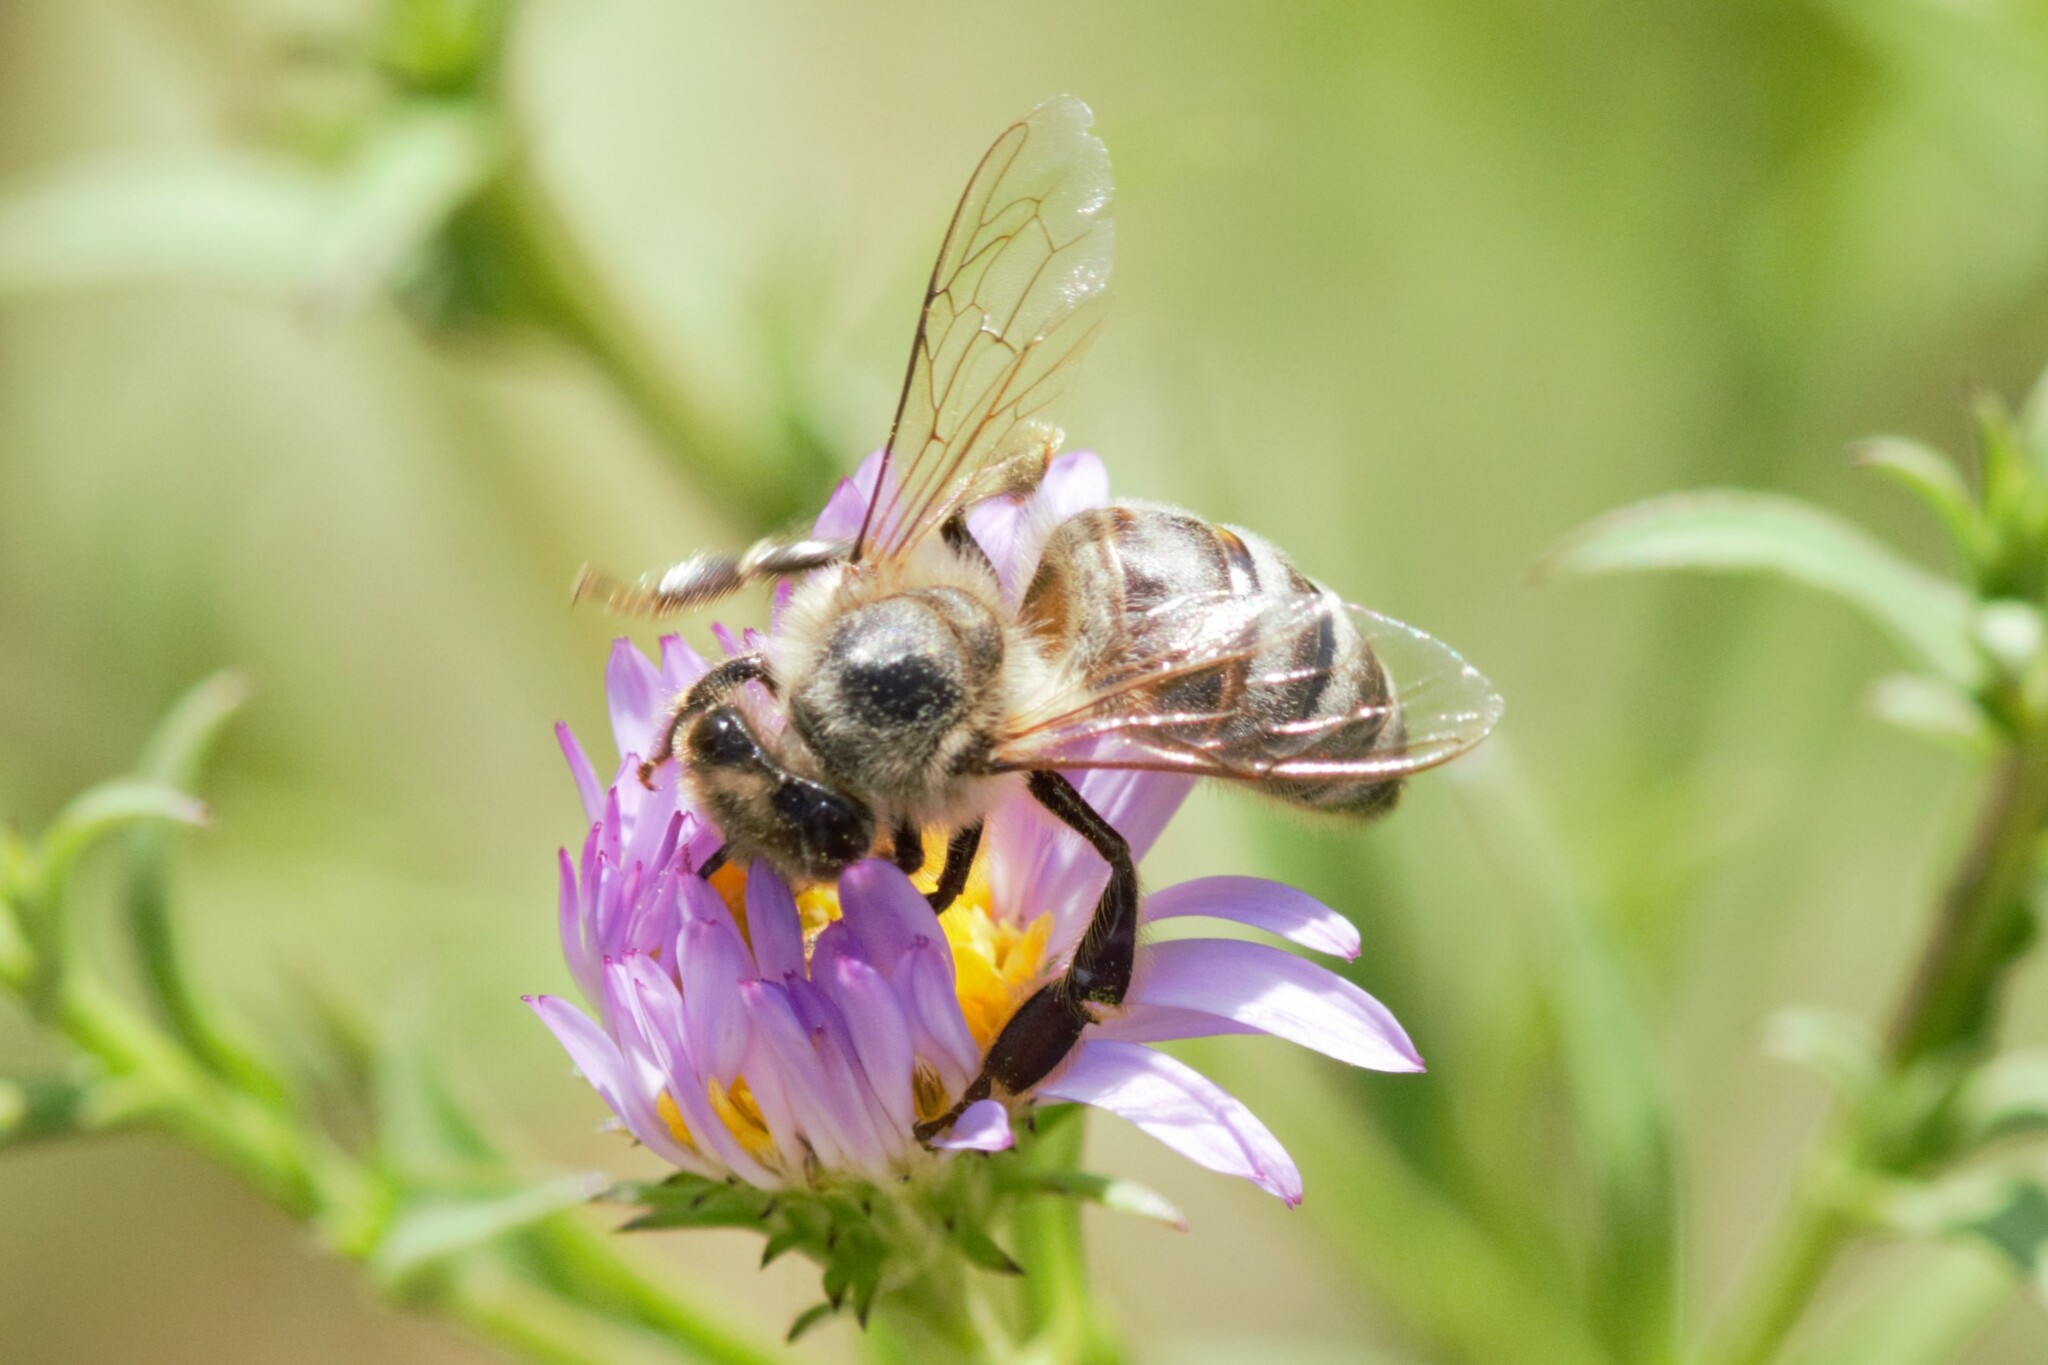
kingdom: Animalia
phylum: Arthropoda
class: Insecta
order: Hymenoptera
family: Apidae
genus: Apis
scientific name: Apis mellifera
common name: Honey bee
